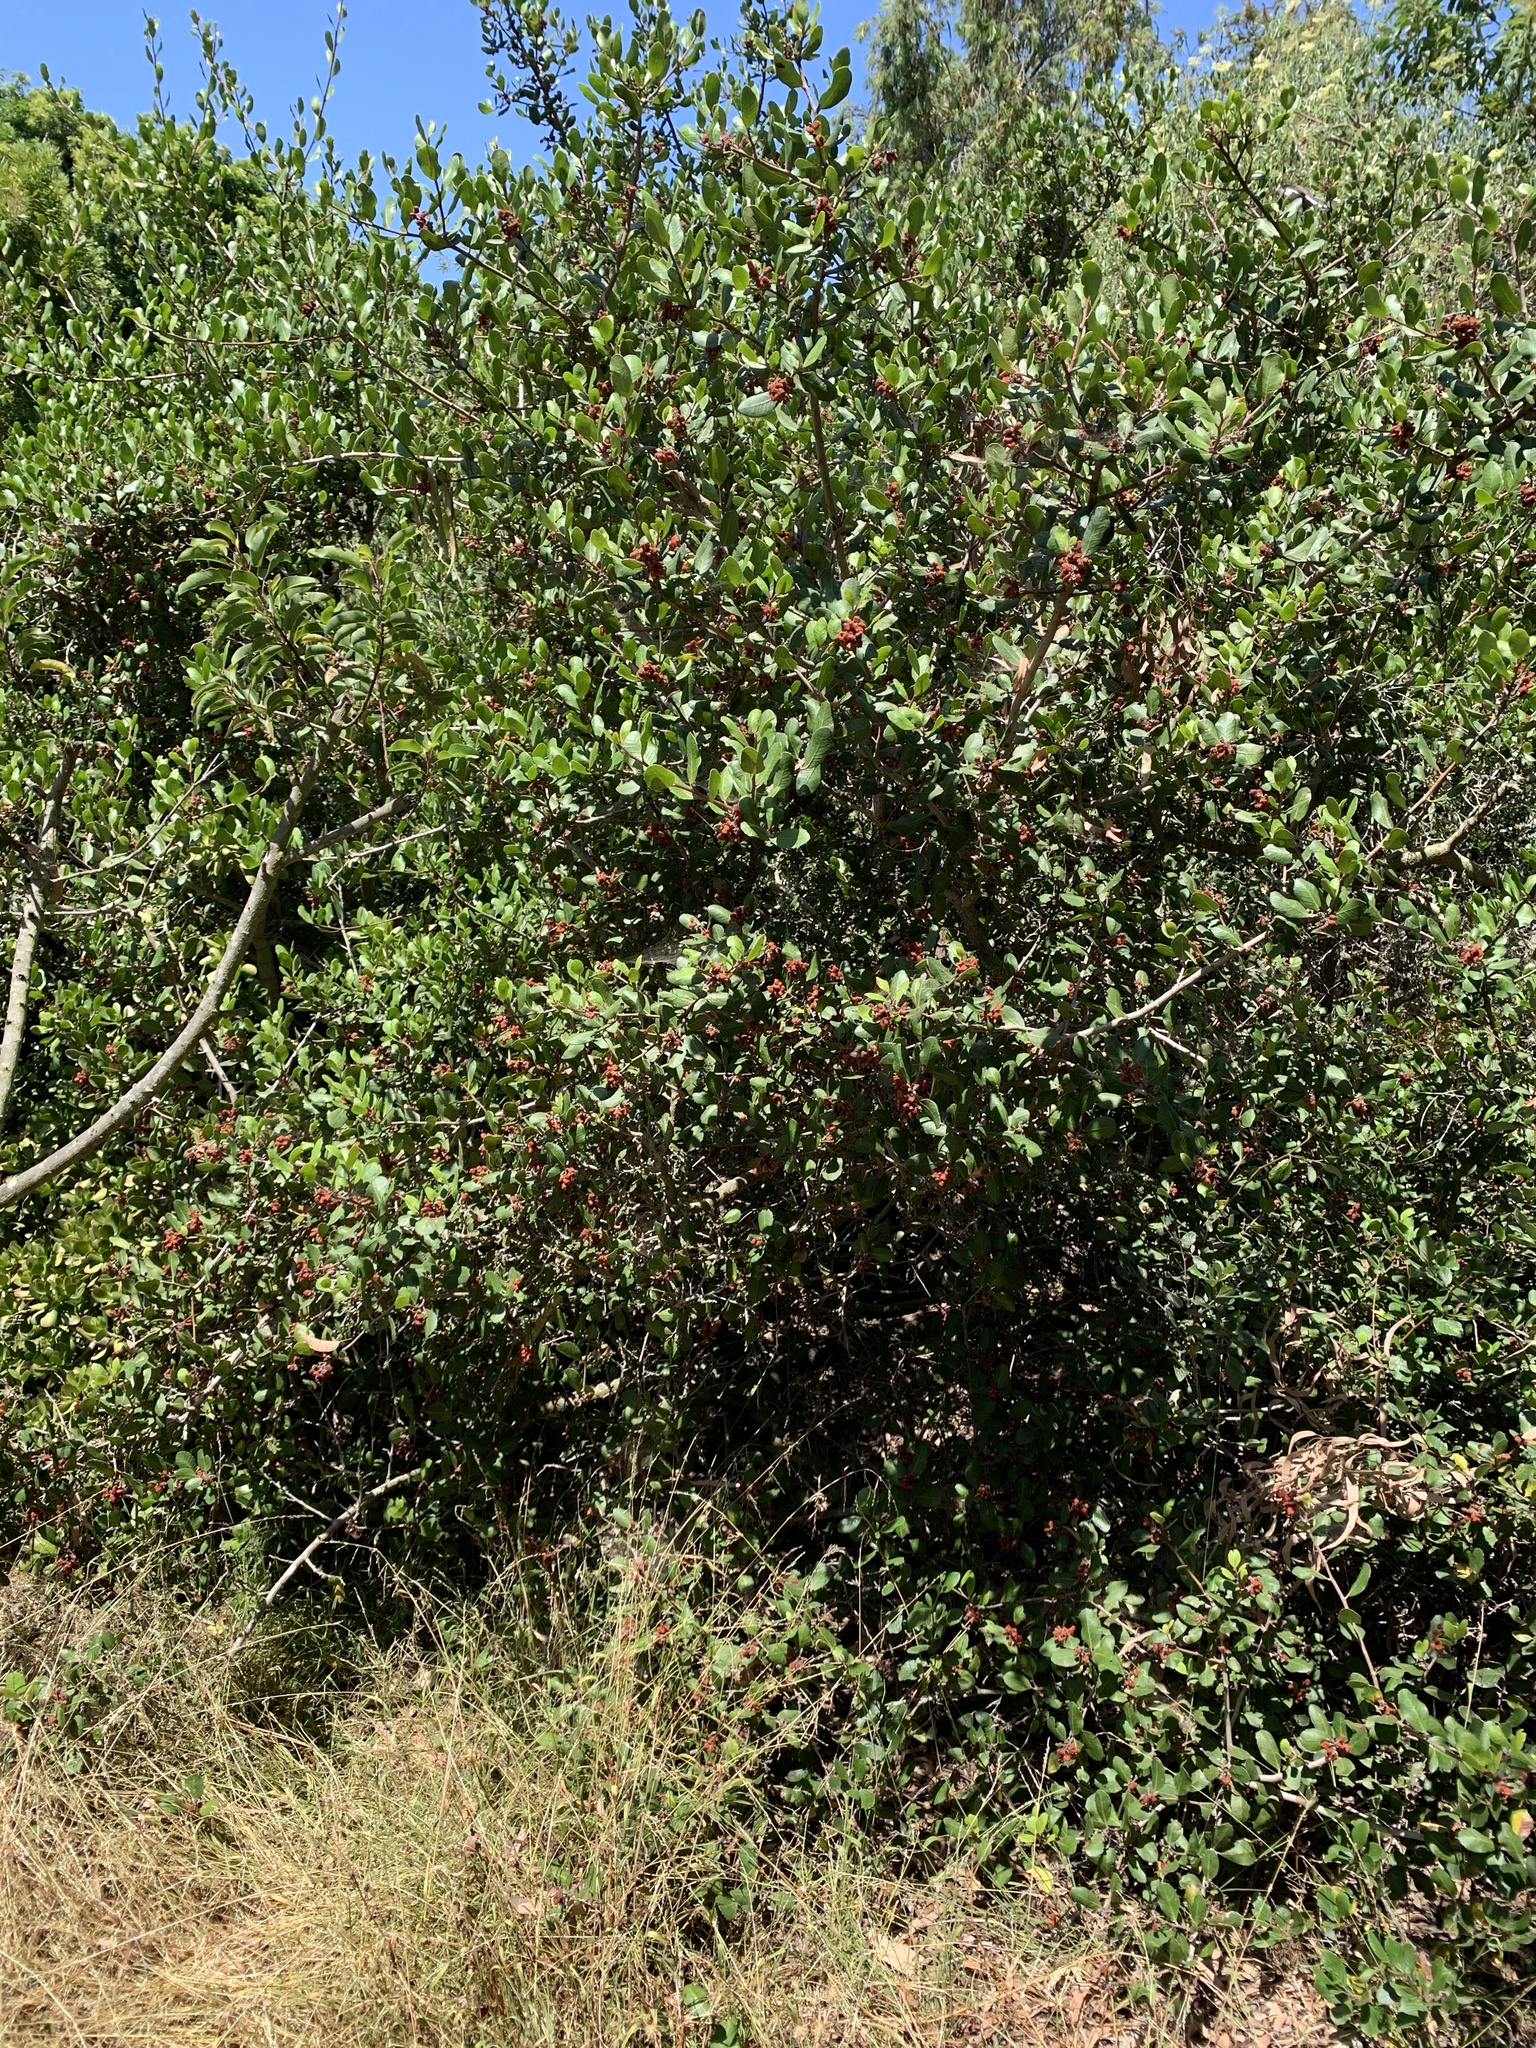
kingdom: Plantae
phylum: Tracheophyta
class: Magnoliopsida
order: Sapindales
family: Anacardiaceae
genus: Rhus
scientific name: Rhus integrifolia
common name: Lemonade sumac
